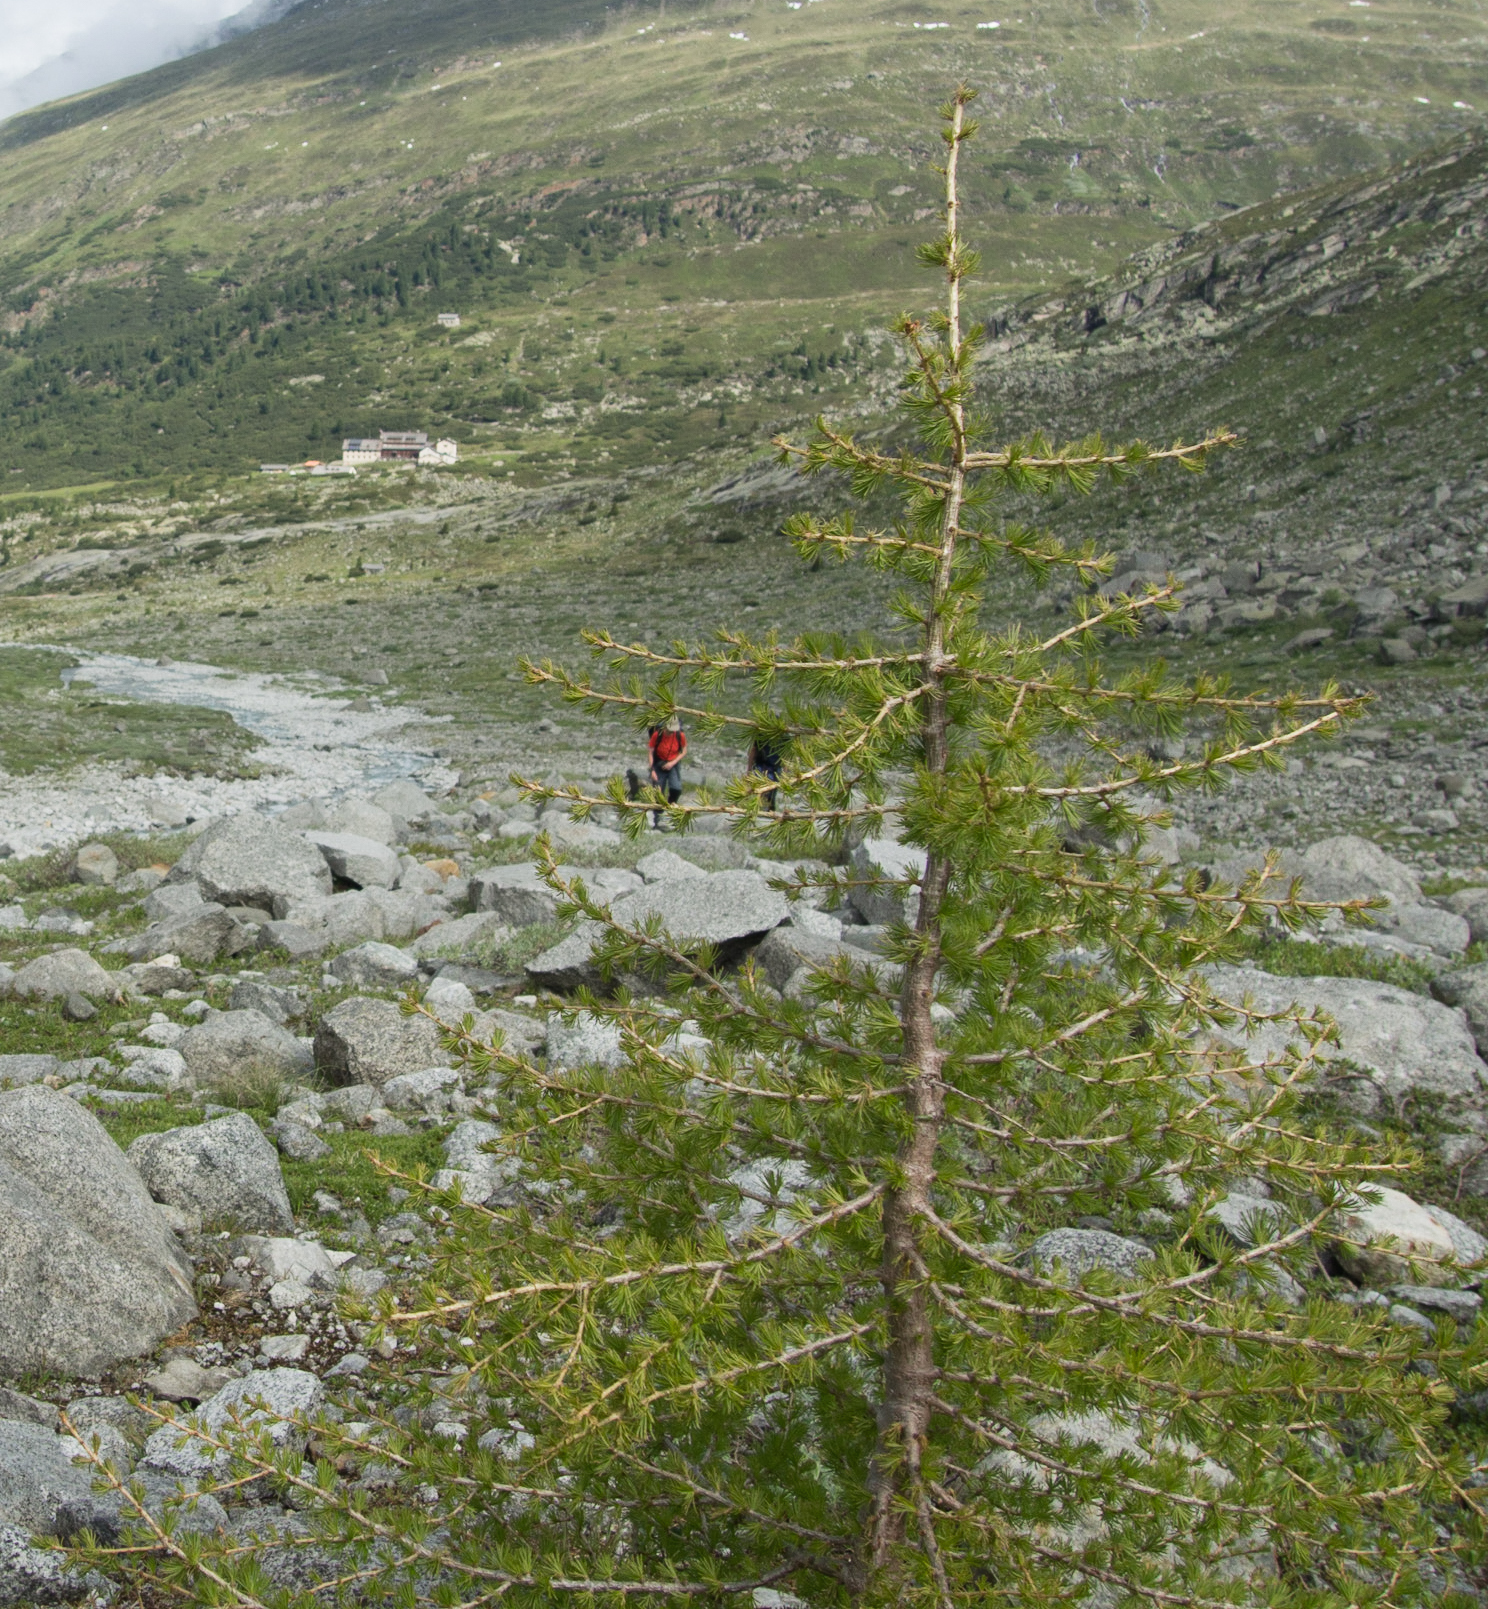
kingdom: Plantae
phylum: Tracheophyta
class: Pinopsida
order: Pinales
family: Pinaceae
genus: Larix
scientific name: Larix decidua
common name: European larch
